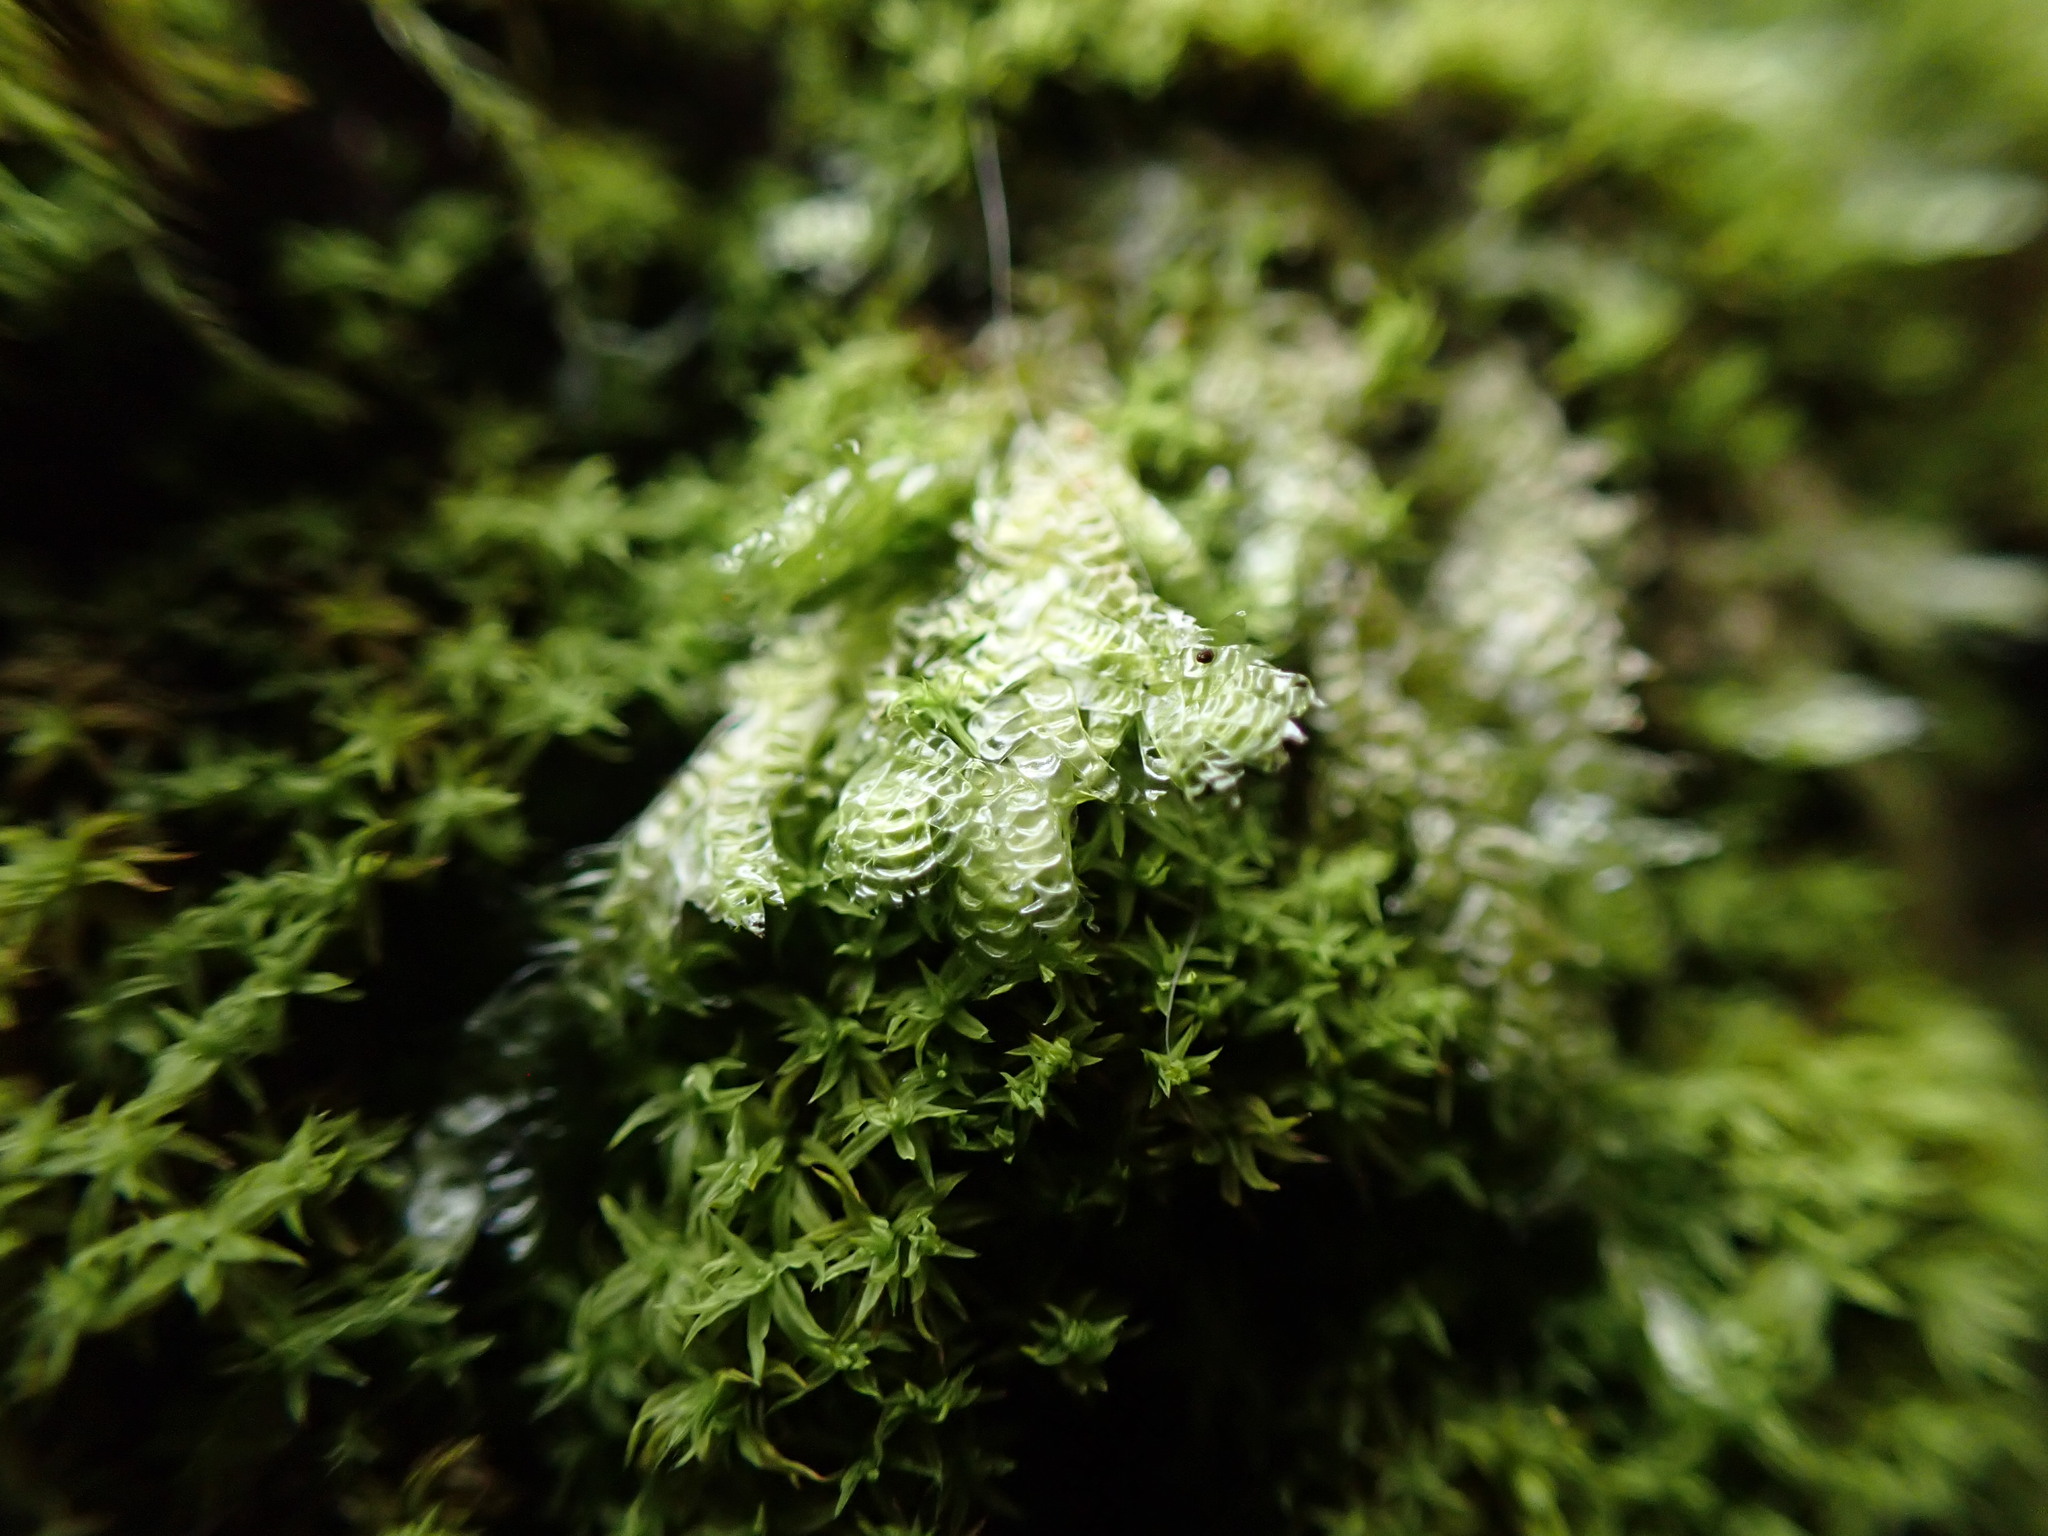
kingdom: Plantae
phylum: Bryophyta
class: Bryopsida
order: Hypnales
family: Neckeraceae
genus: Neckera
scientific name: Neckera douglasii
